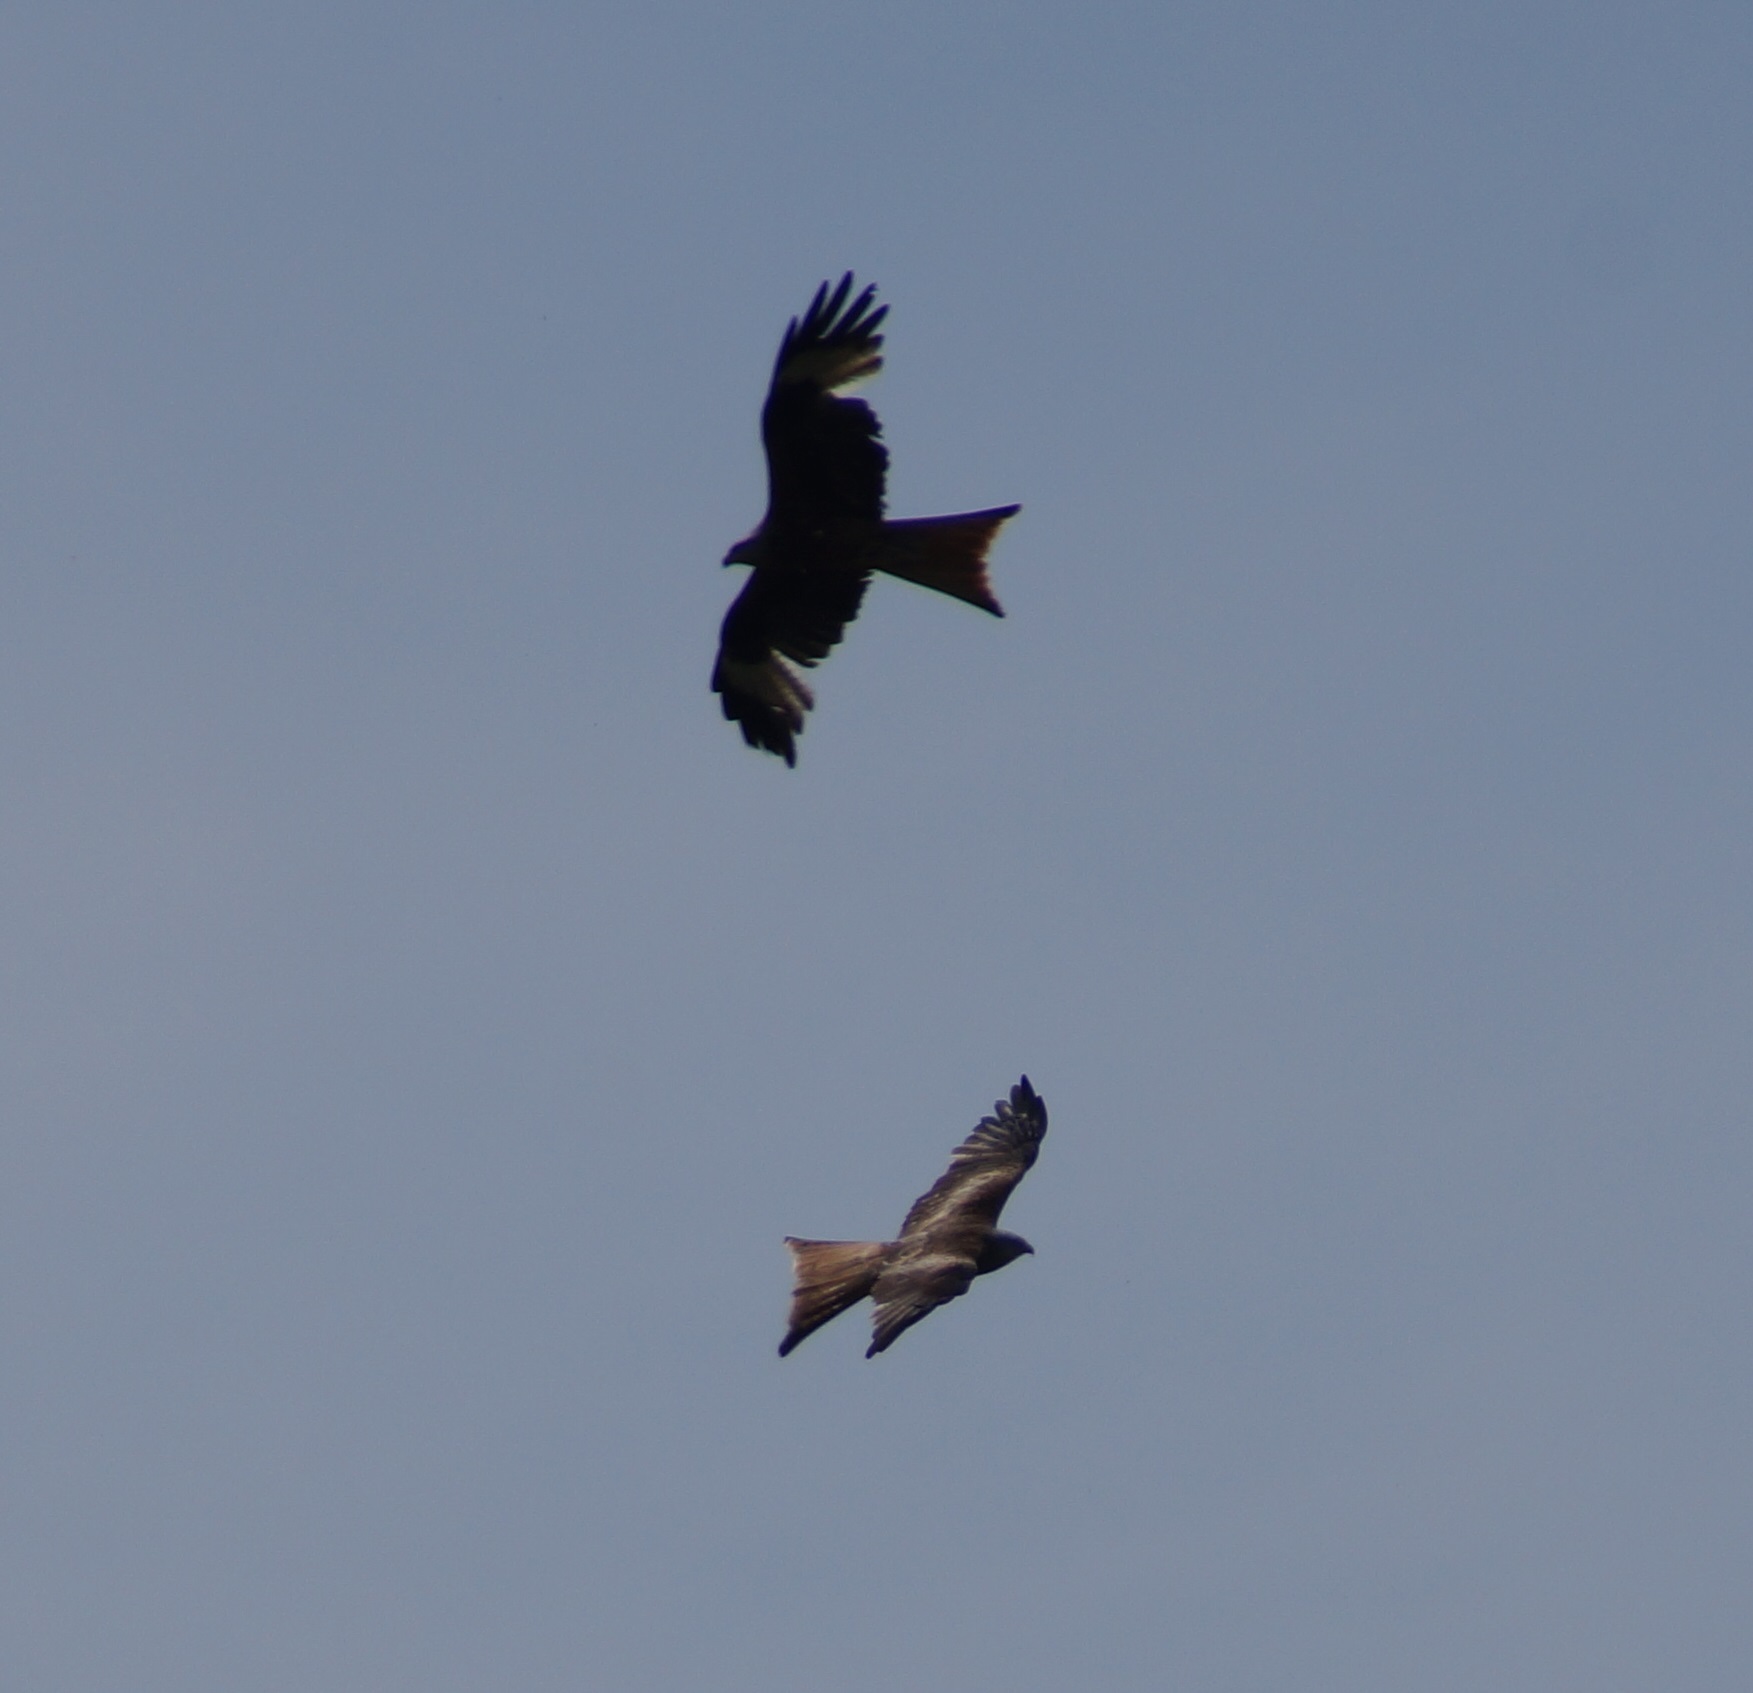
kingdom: Animalia
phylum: Chordata
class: Aves
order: Accipitriformes
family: Accipitridae
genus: Milvus
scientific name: Milvus milvus
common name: Red kite
